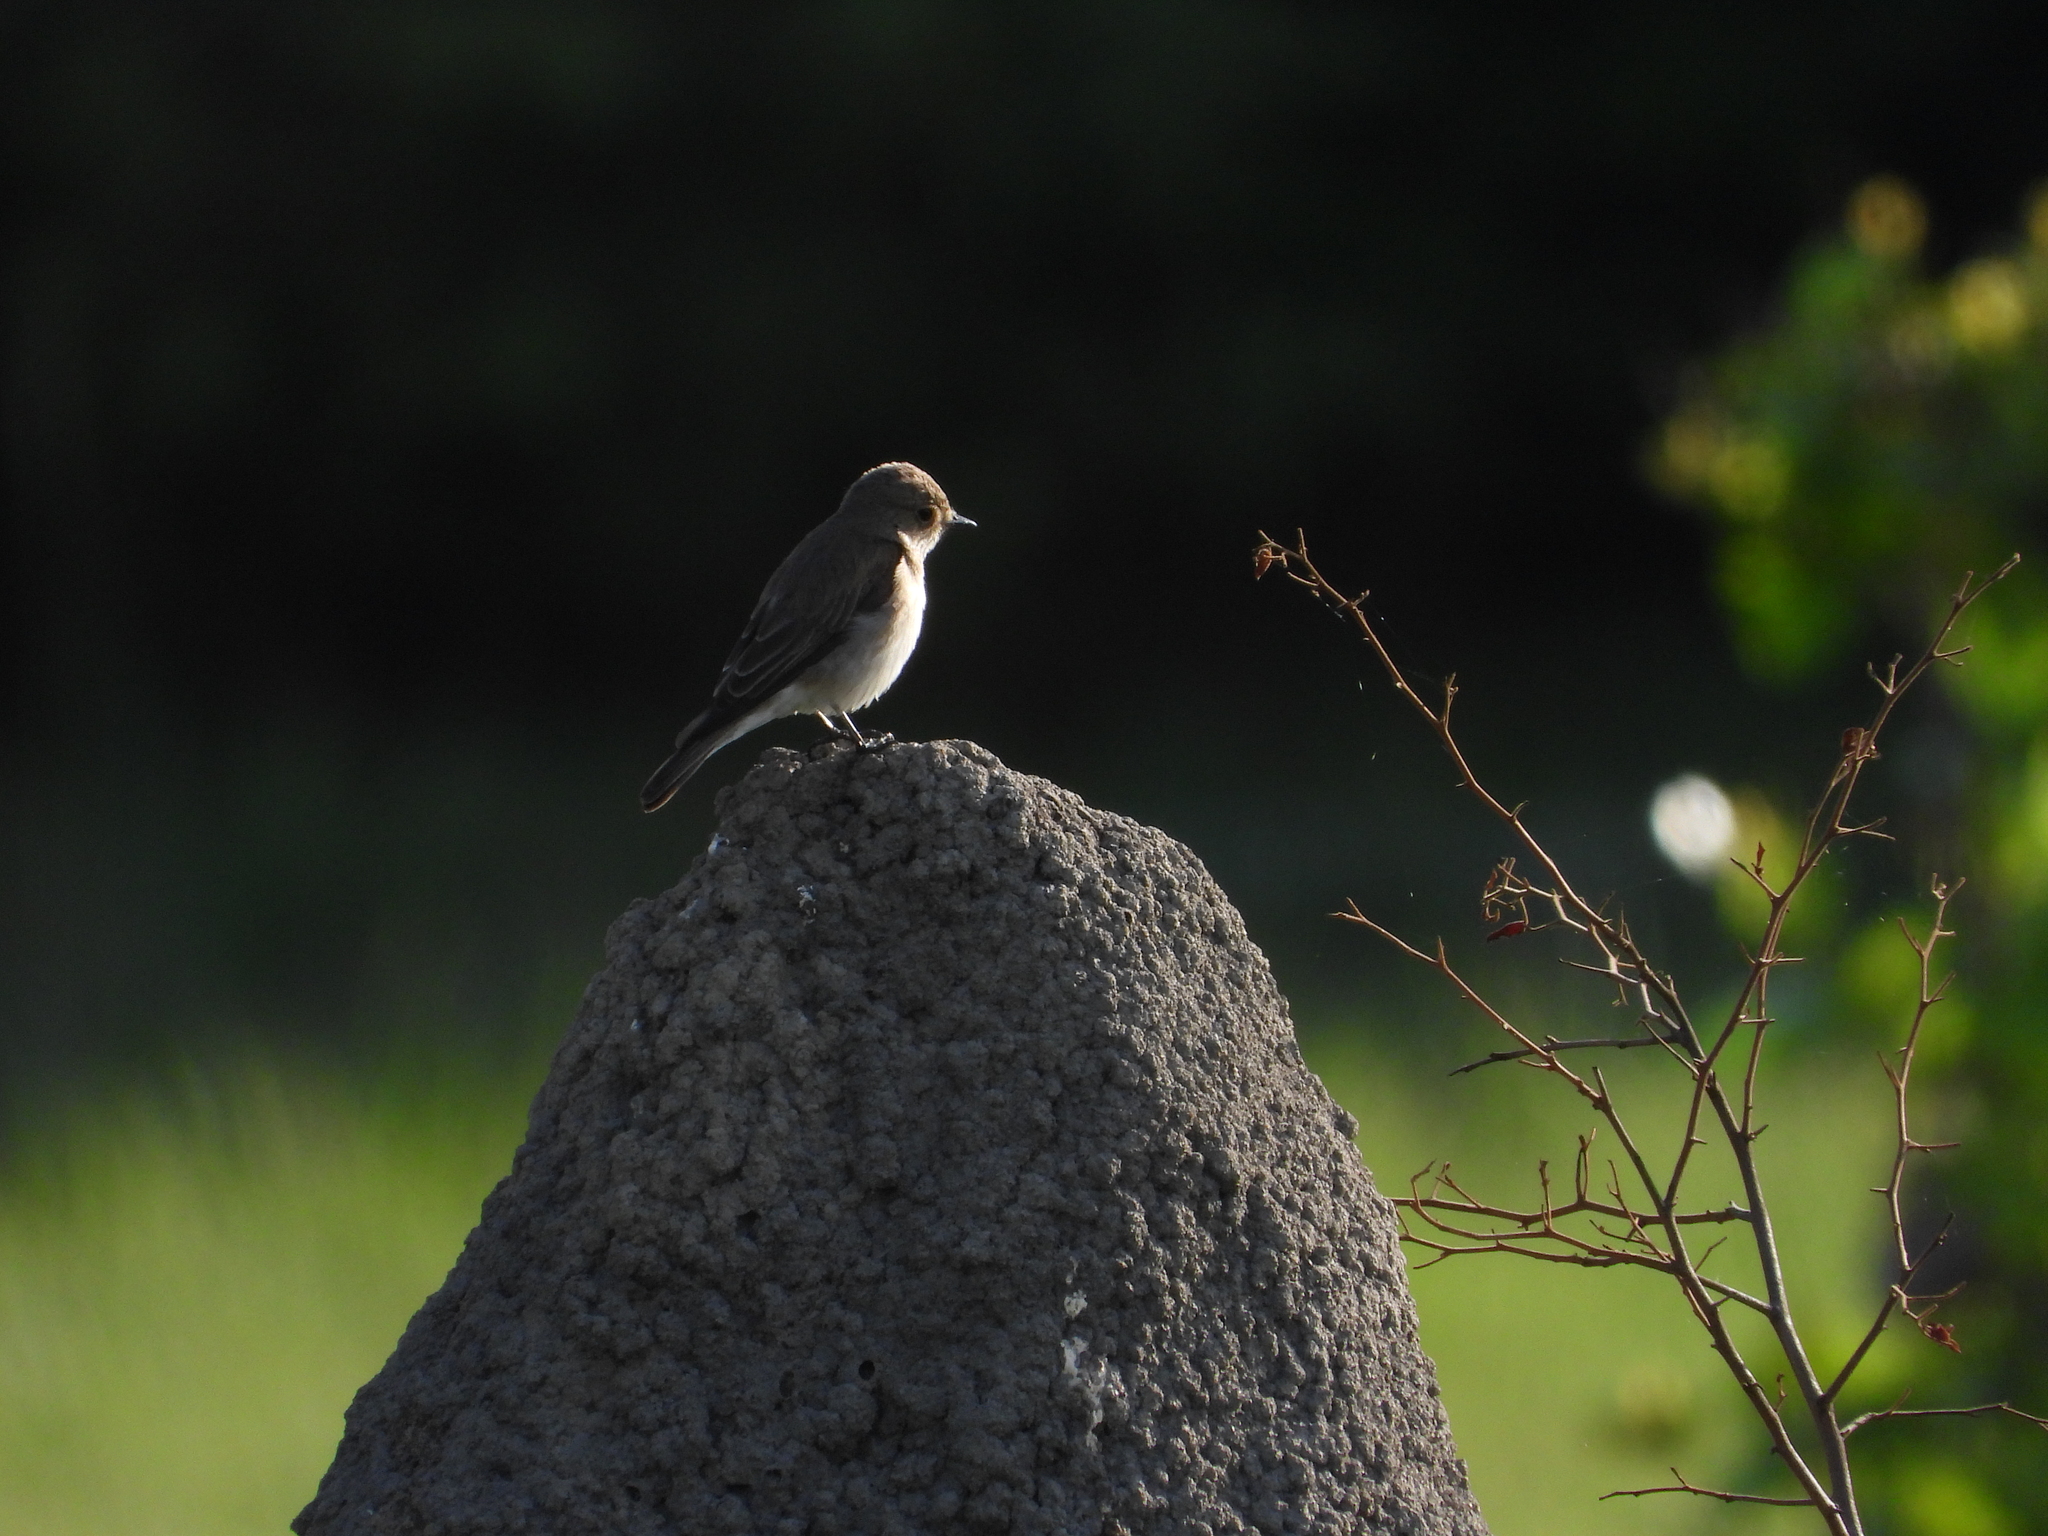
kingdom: Animalia
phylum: Chordata
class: Aves
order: Passeriformes
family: Muscicapidae
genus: Muscicapa
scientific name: Muscicapa striata
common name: Spotted flycatcher
